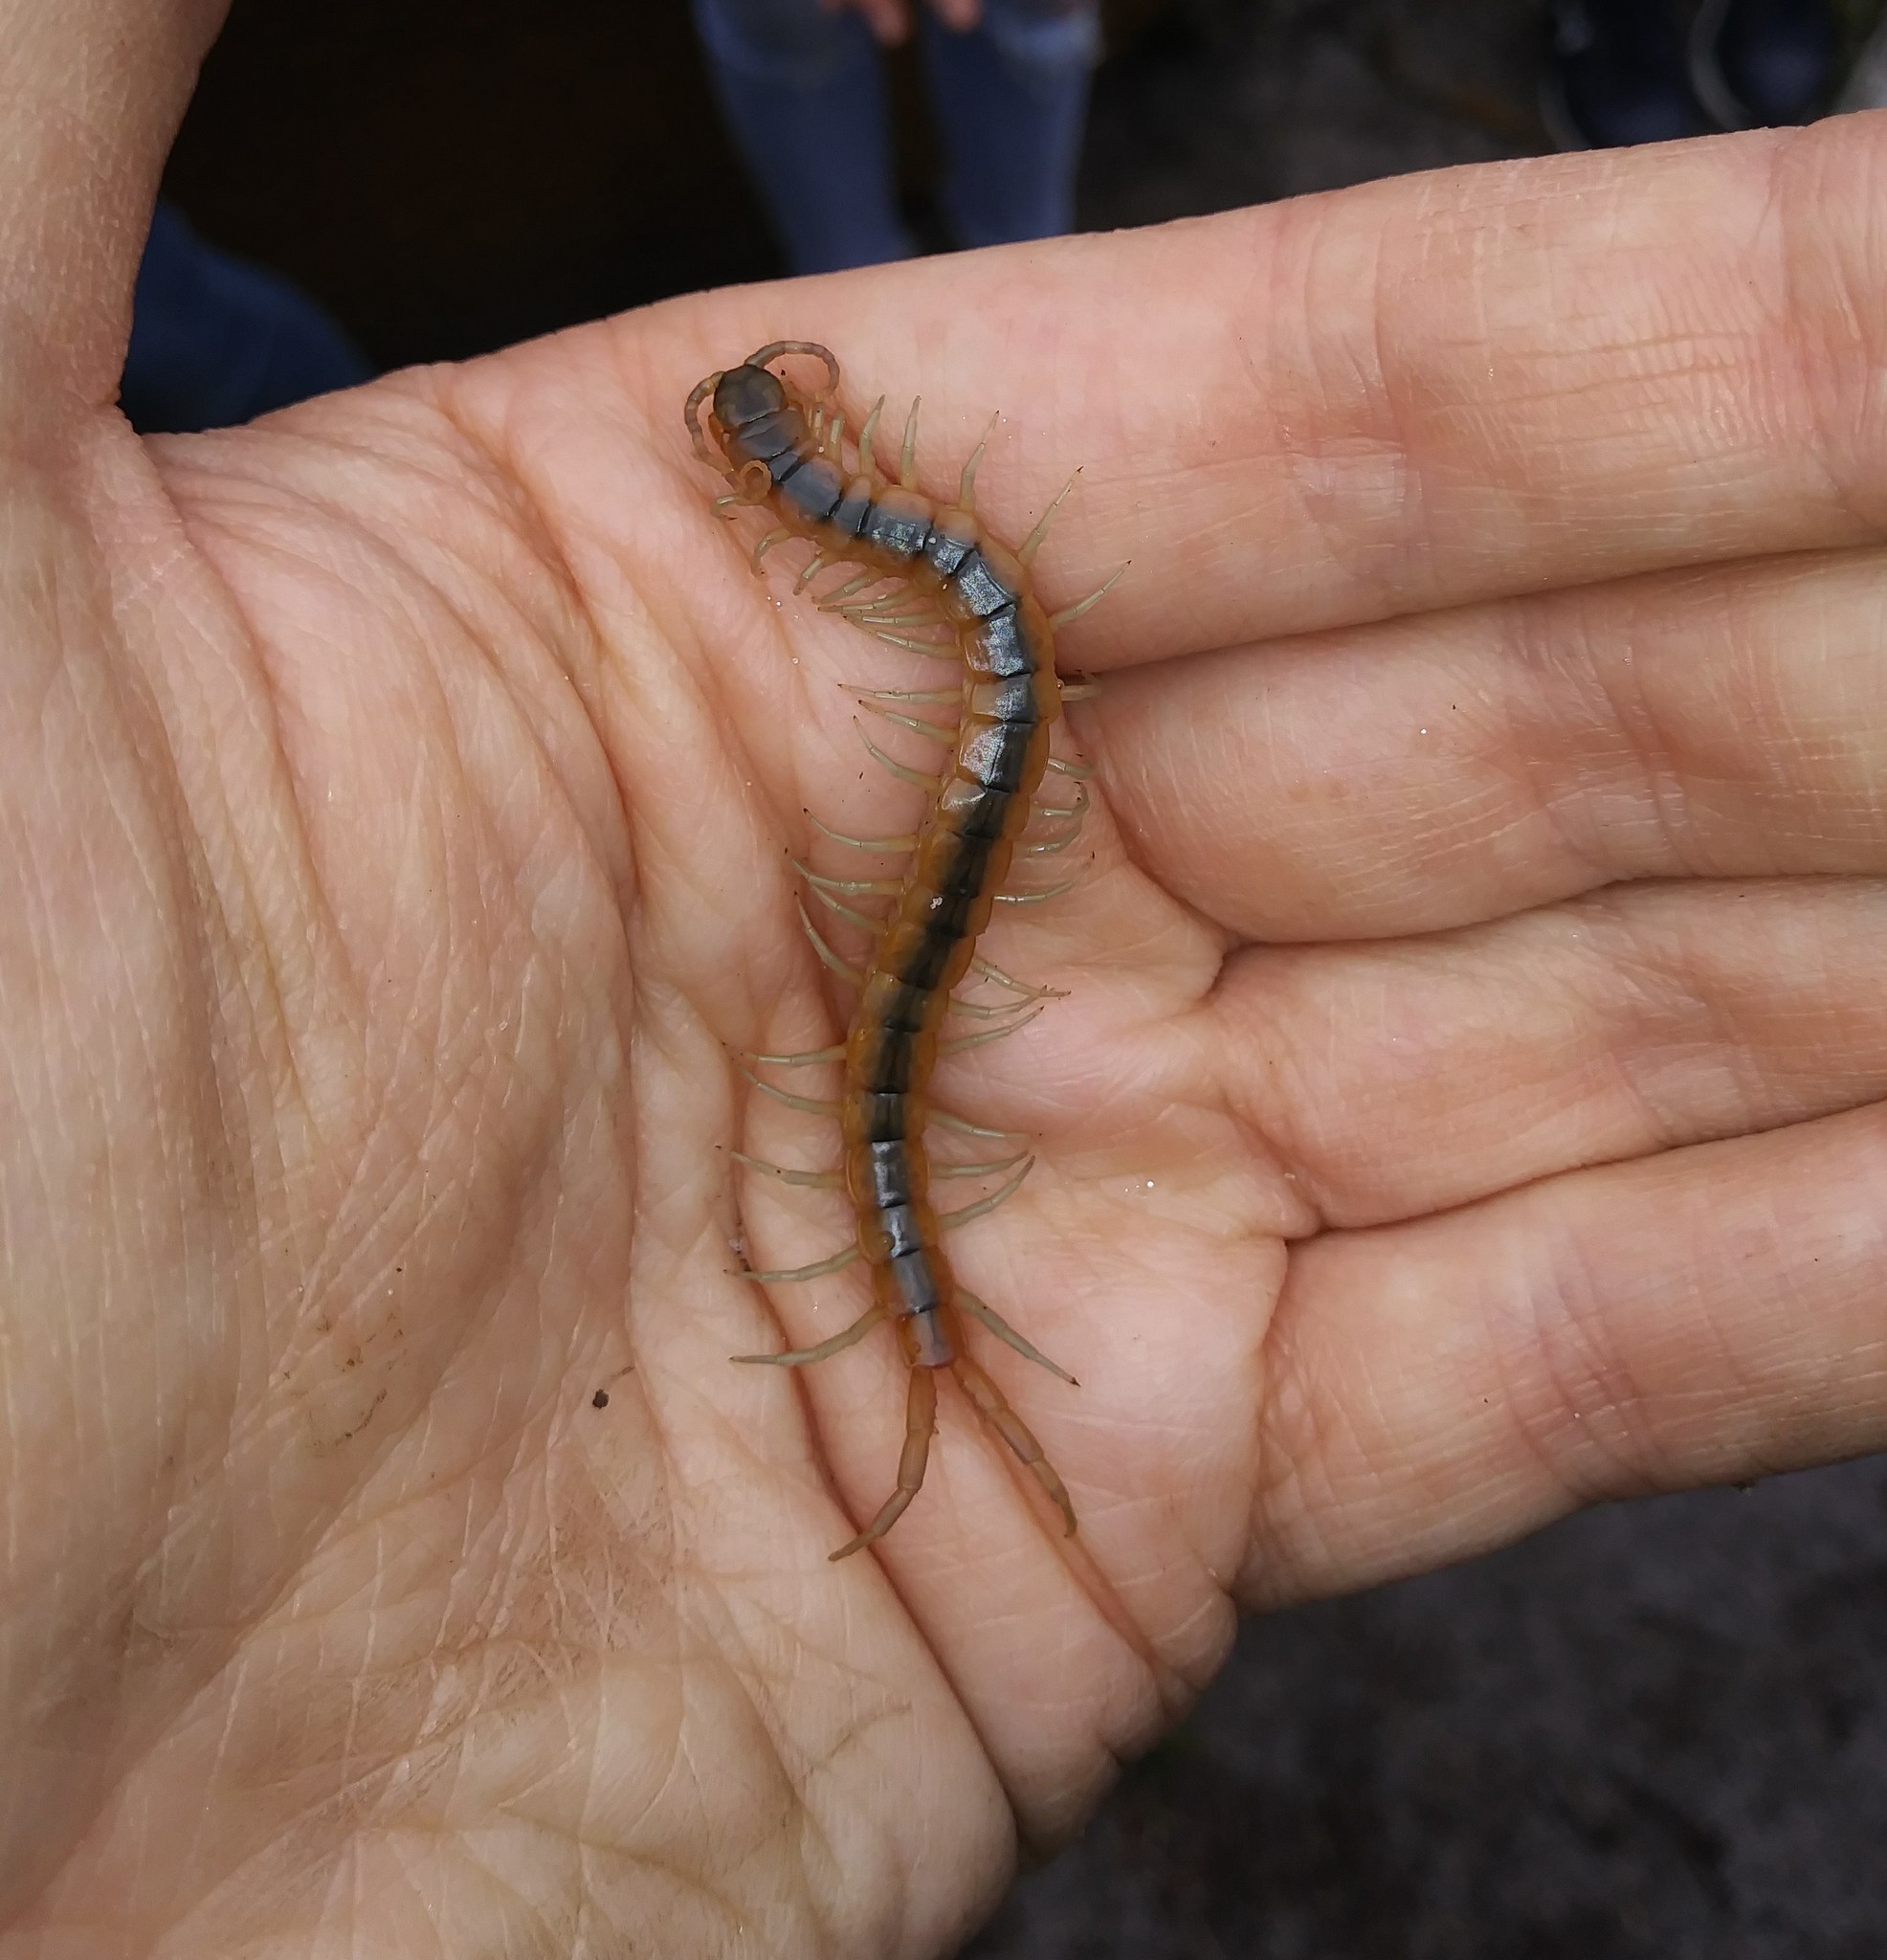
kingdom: Animalia
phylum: Arthropoda
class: Chilopoda
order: Scolopendromorpha
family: Scolopendridae
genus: Scolopendra
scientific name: Scolopendra viridis
